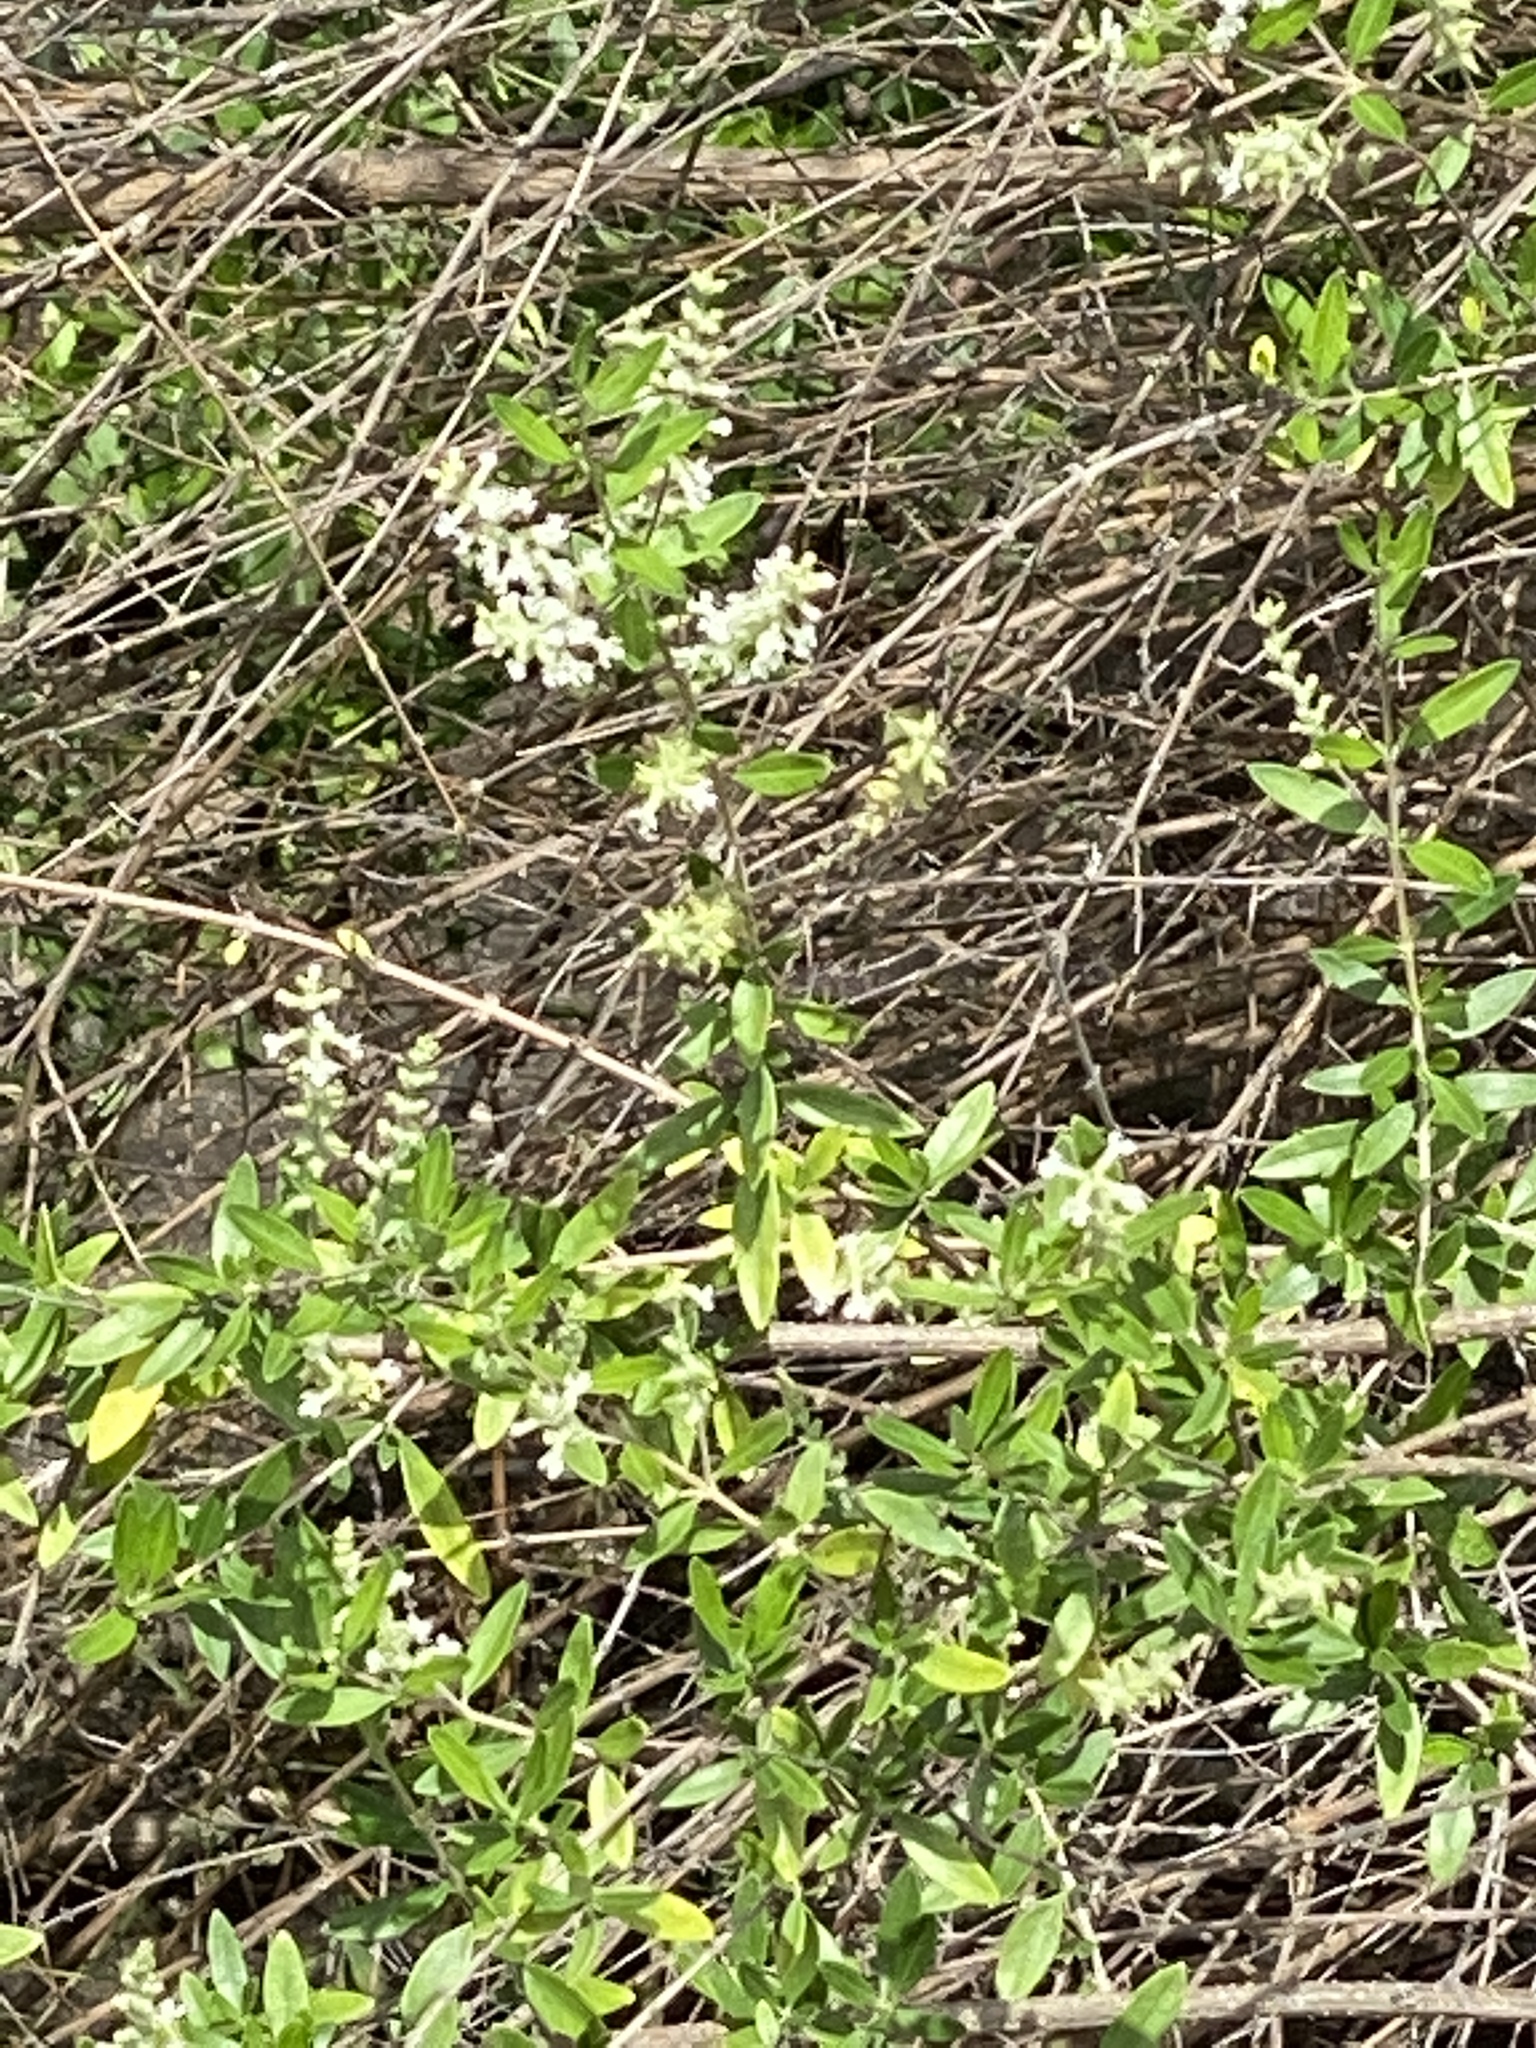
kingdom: Plantae
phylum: Tracheophyta
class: Magnoliopsida
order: Lamiales
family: Verbenaceae
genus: Aloysia
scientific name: Aloysia gratissima
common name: Common bee-brush
